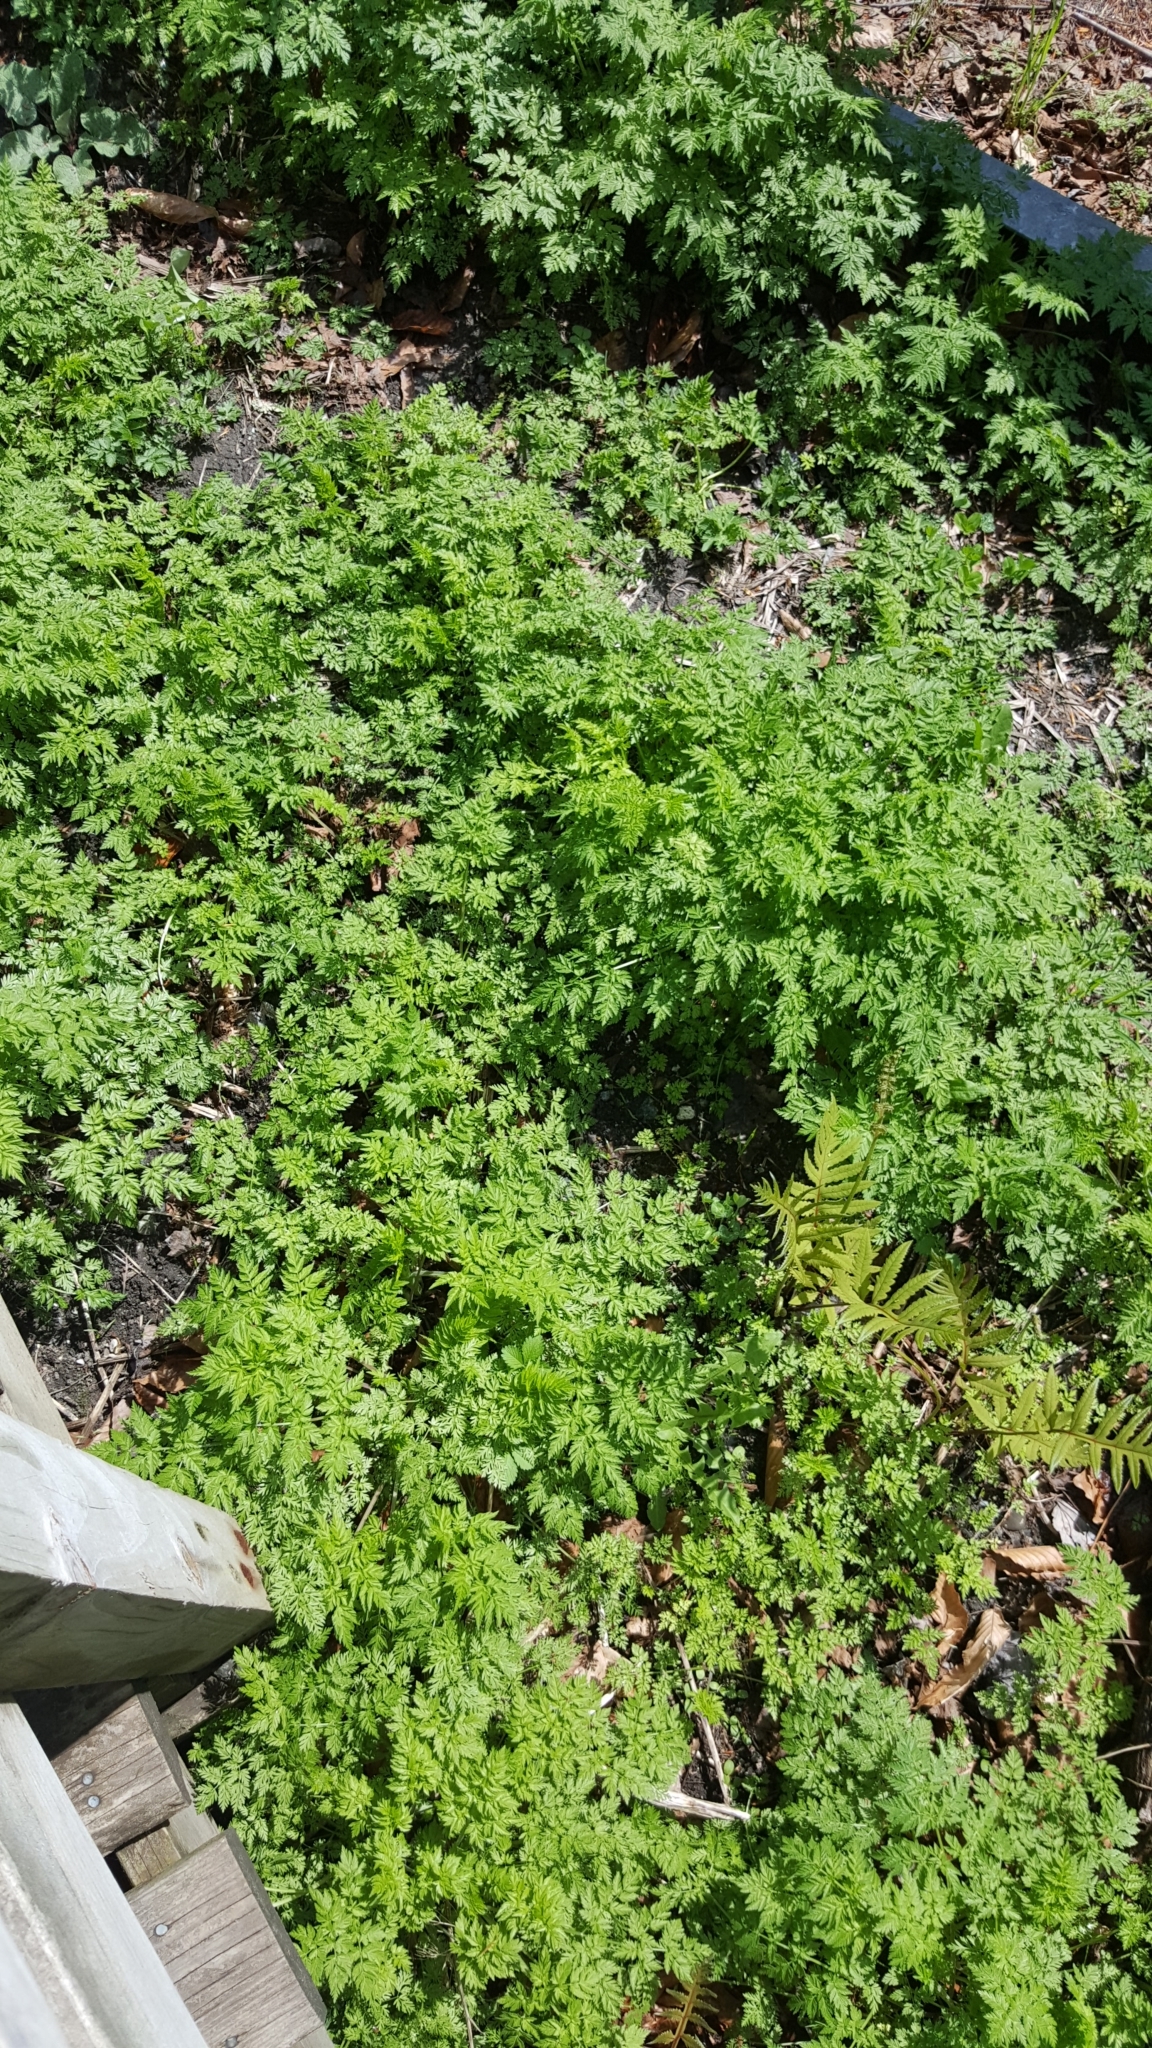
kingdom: Plantae
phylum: Tracheophyta
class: Magnoliopsida
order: Apiales
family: Apiaceae
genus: Anthriscus
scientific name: Anthriscus sylvestris
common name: Cow parsley
